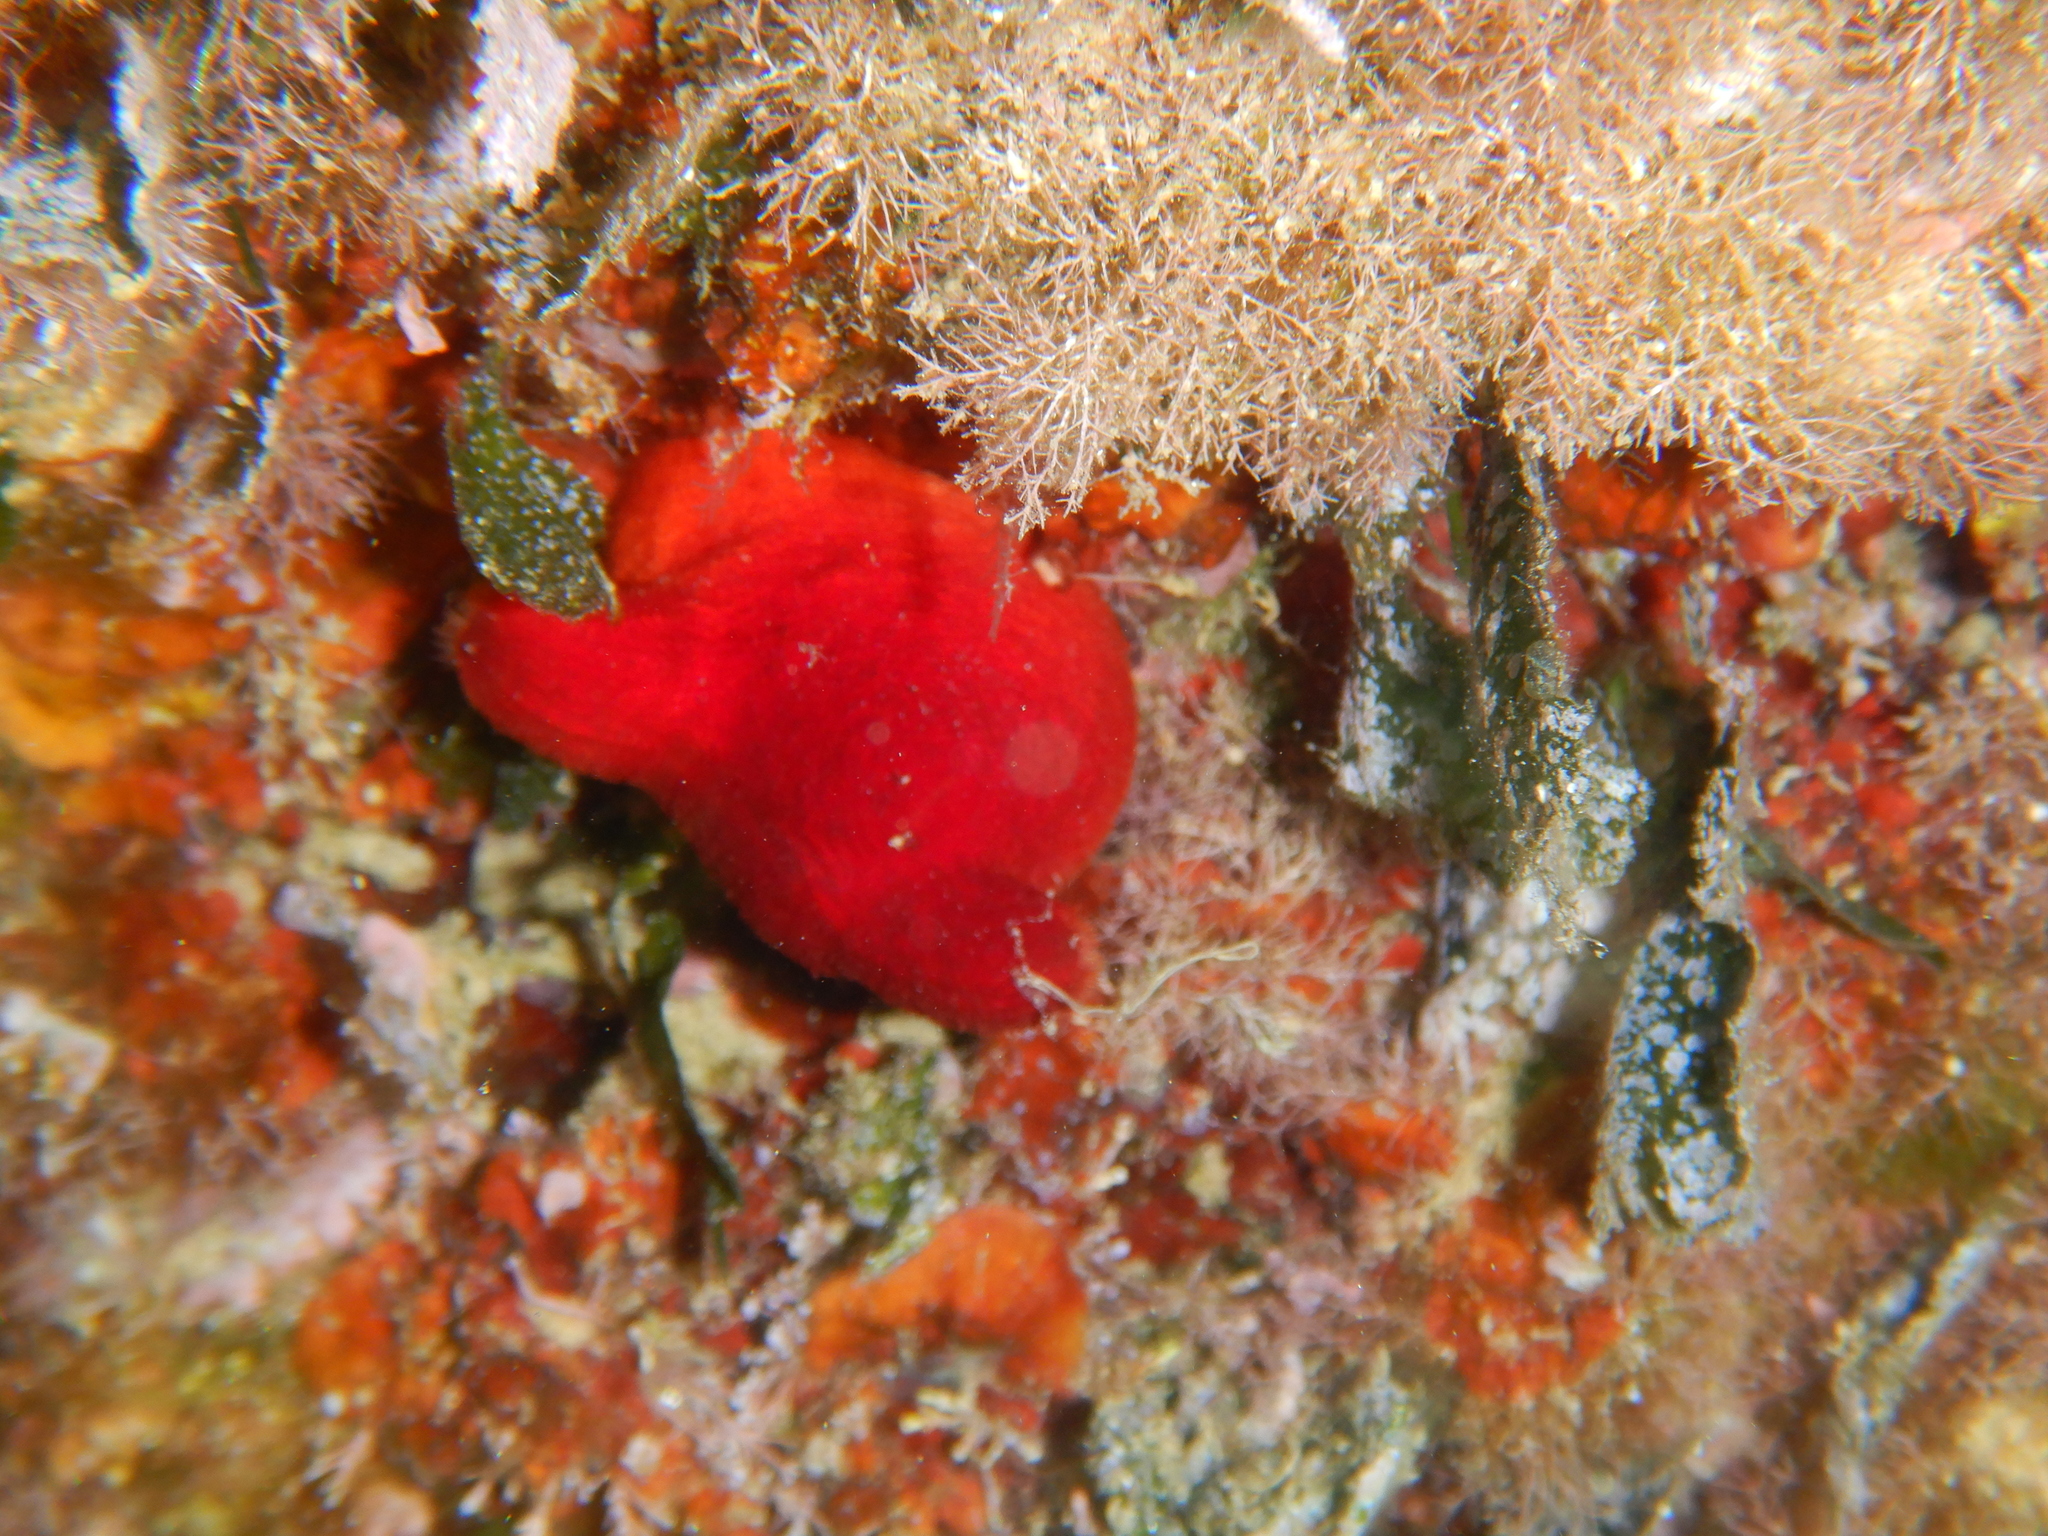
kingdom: Animalia
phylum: Chordata
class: Ascidiacea
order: Stolidobranchia
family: Pyuridae
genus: Halocynthia
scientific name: Halocynthia papillosa
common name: Red sea-squirt
